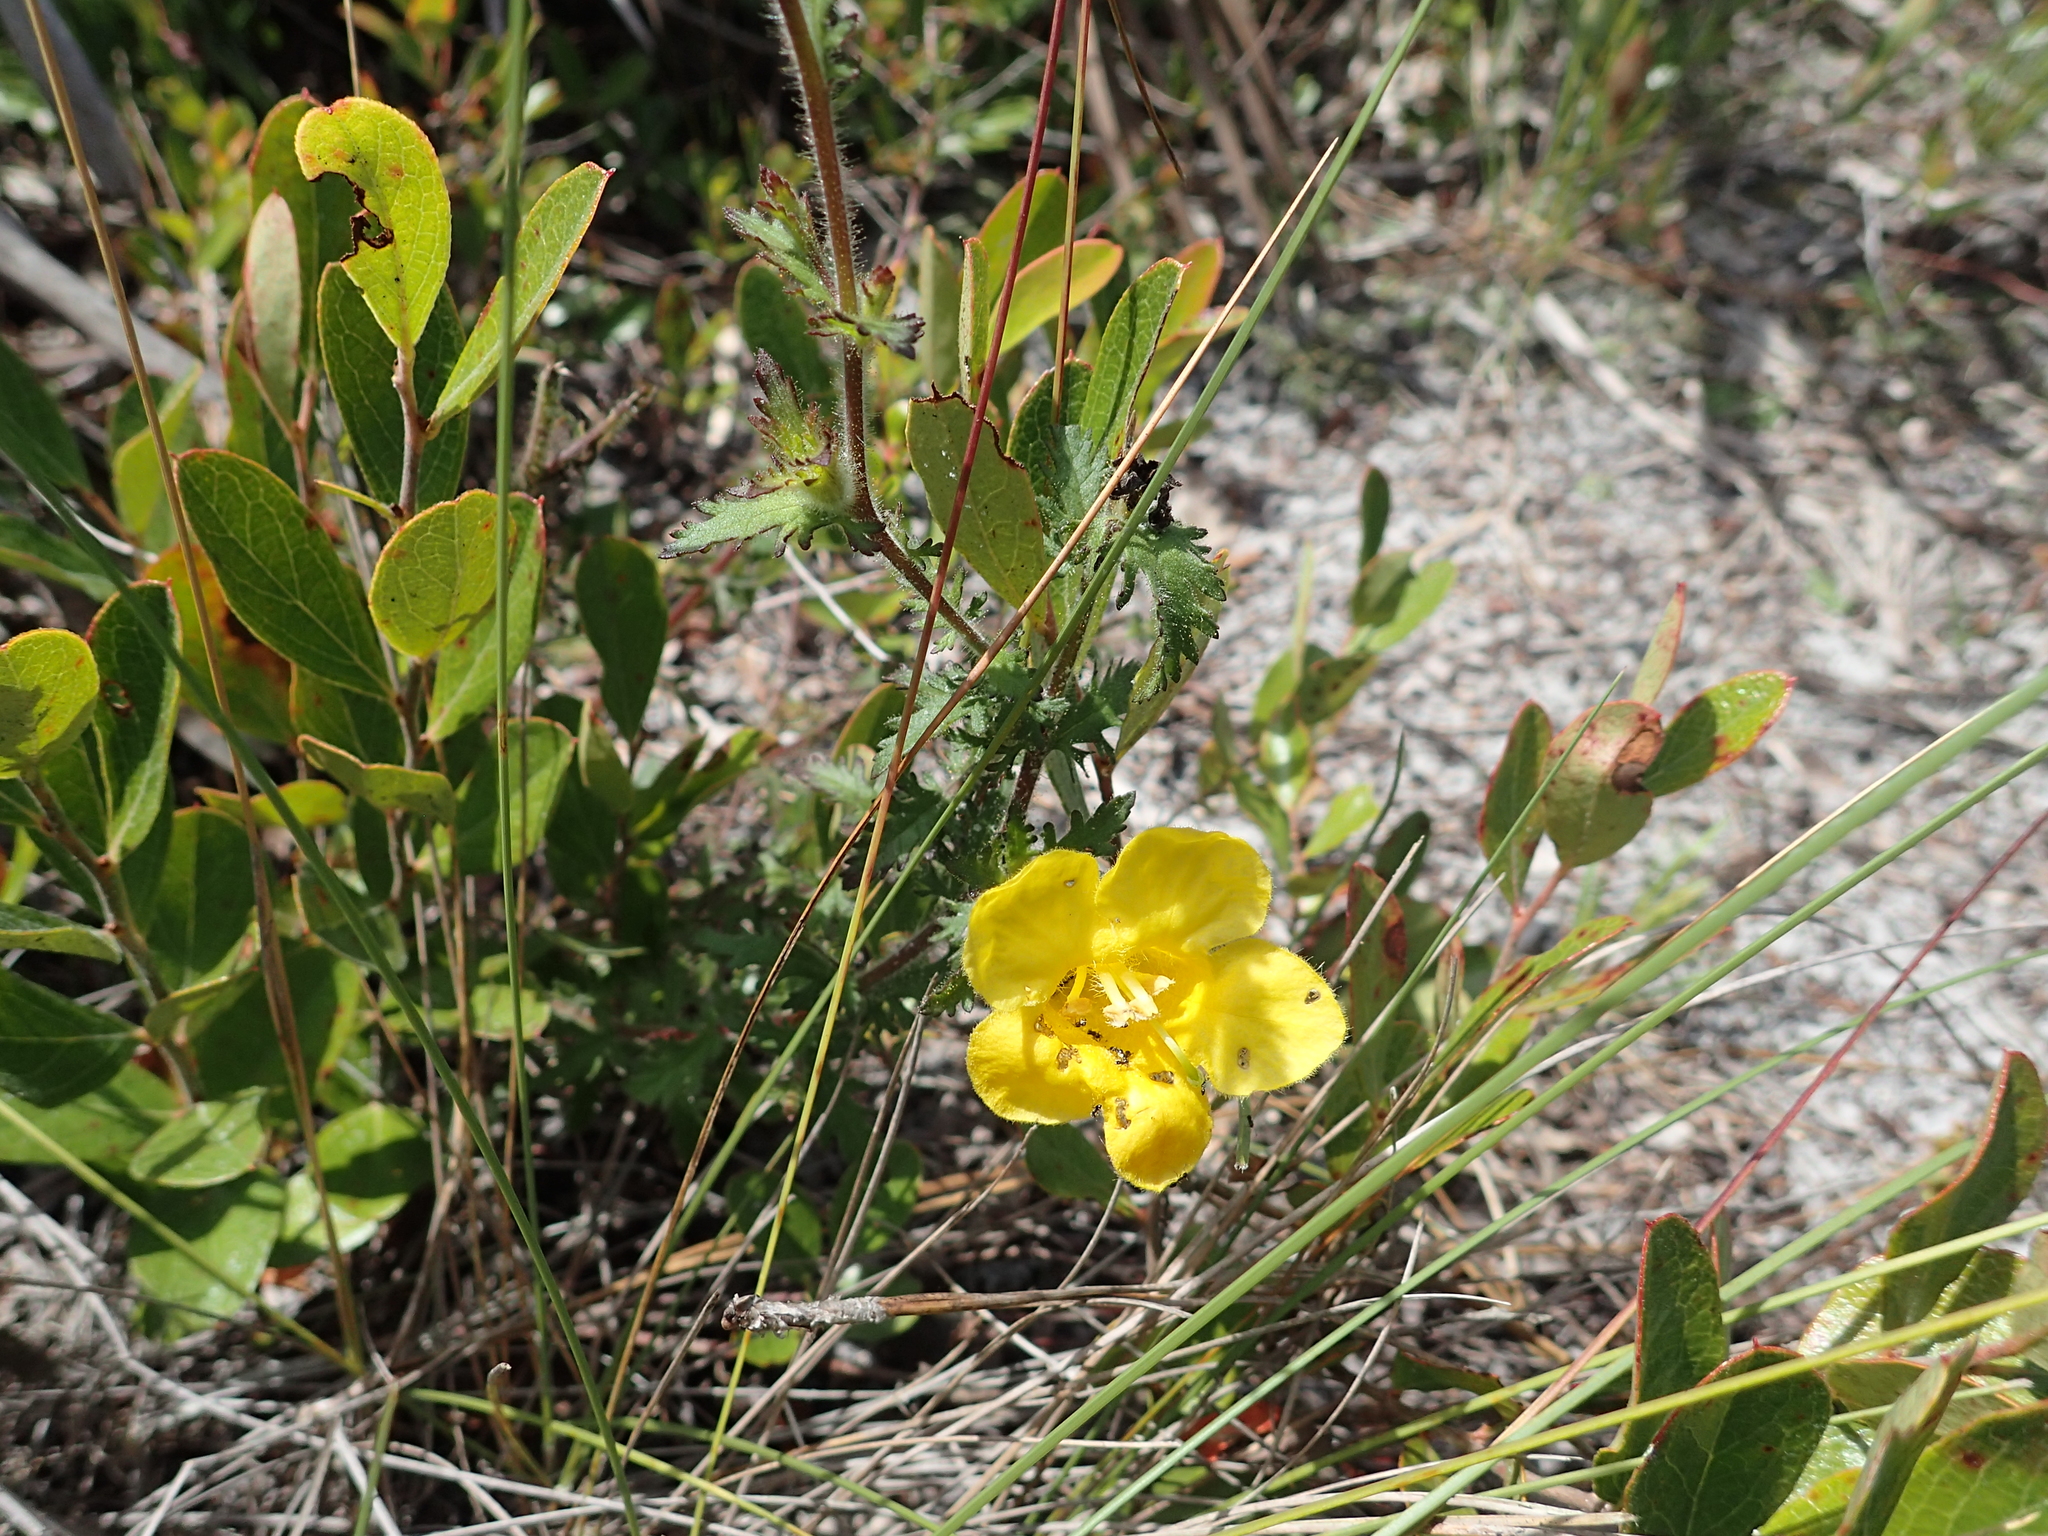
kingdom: Plantae
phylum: Tracheophyta
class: Magnoliopsida
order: Lamiales
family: Orobanchaceae
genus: Aureolaria
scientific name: Aureolaria pectinata
